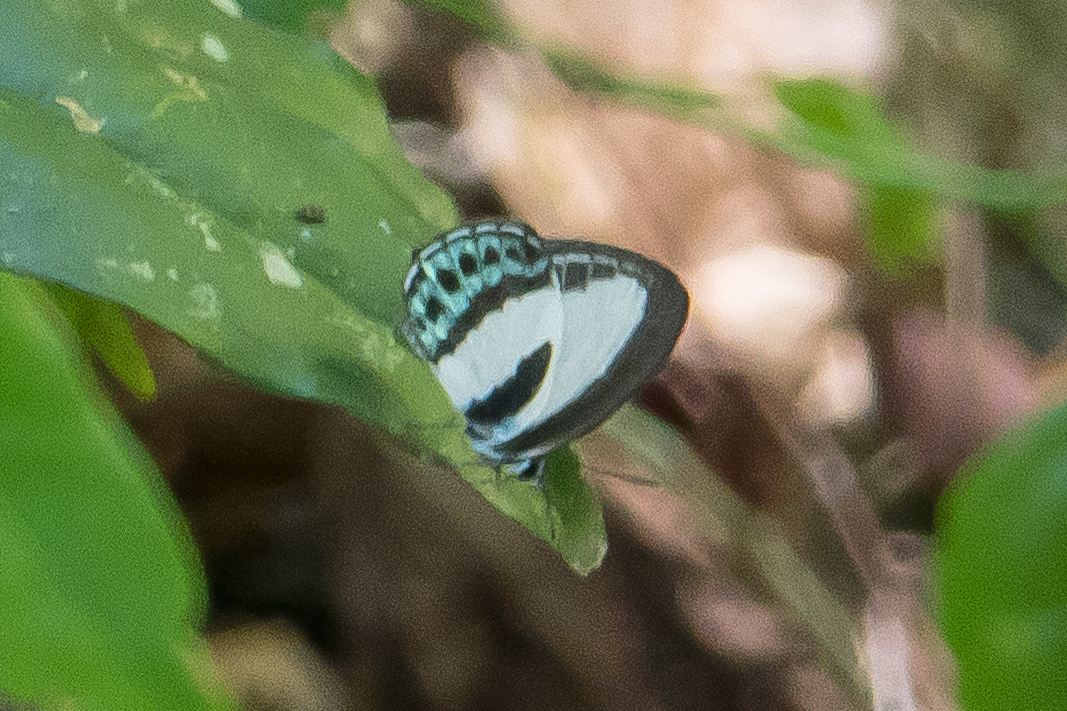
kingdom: Animalia
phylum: Arthropoda
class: Insecta
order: Lepidoptera
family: Lycaenidae
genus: Nacaduba
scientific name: Nacaduba cyanea
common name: Tailed green-banded line blue
